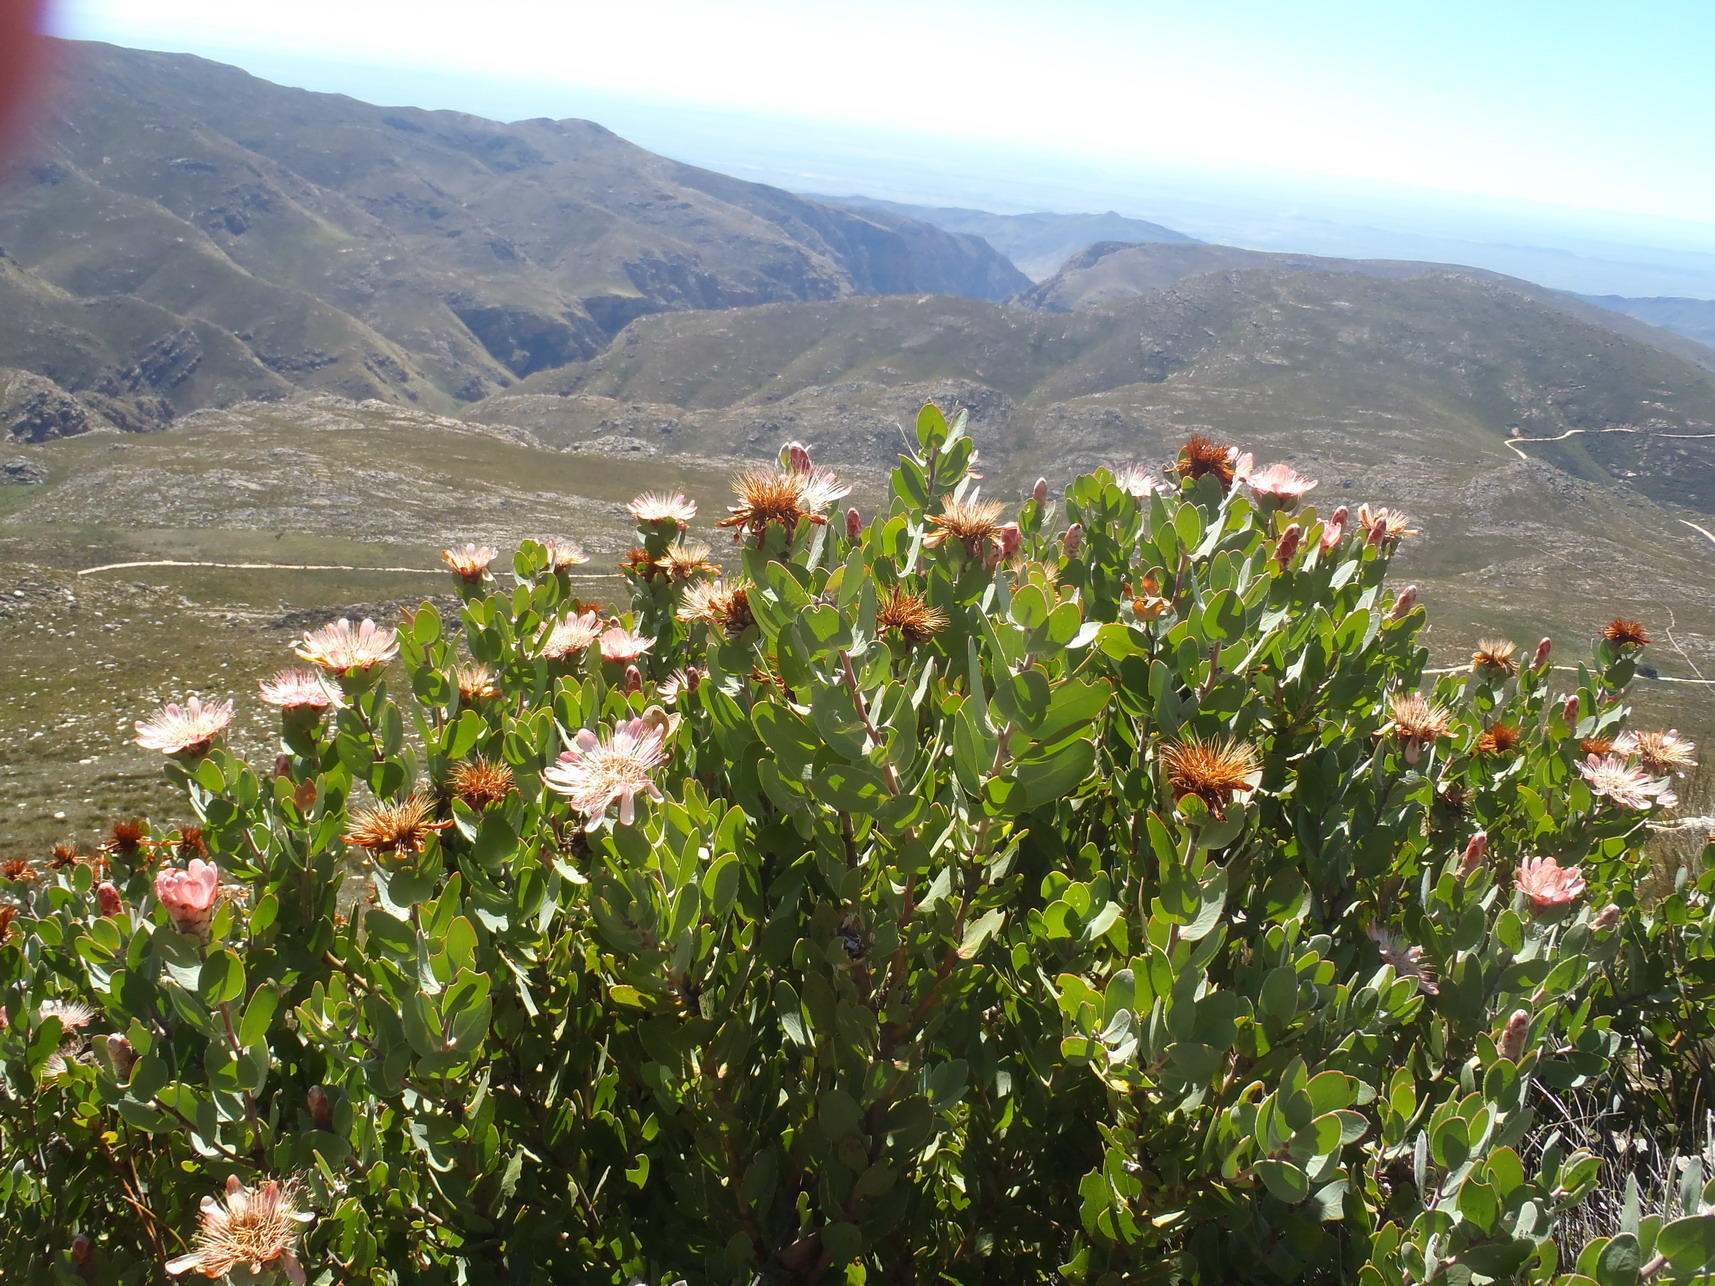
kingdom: Plantae
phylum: Tracheophyta
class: Magnoliopsida
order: Proteales
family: Proteaceae
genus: Protea
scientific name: Protea punctata
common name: Water sugarbush
